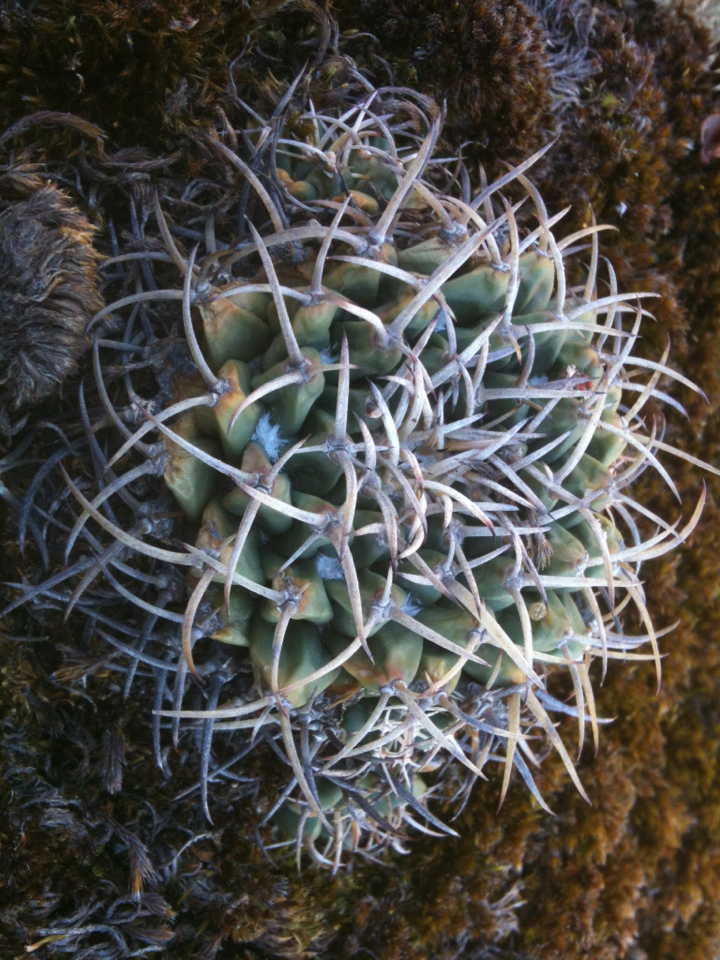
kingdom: Plantae
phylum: Tracheophyta
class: Magnoliopsida
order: Caryophyllales
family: Cactaceae
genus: Mammillaria
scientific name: Mammillaria magnimamma
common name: Mexican pincushion
